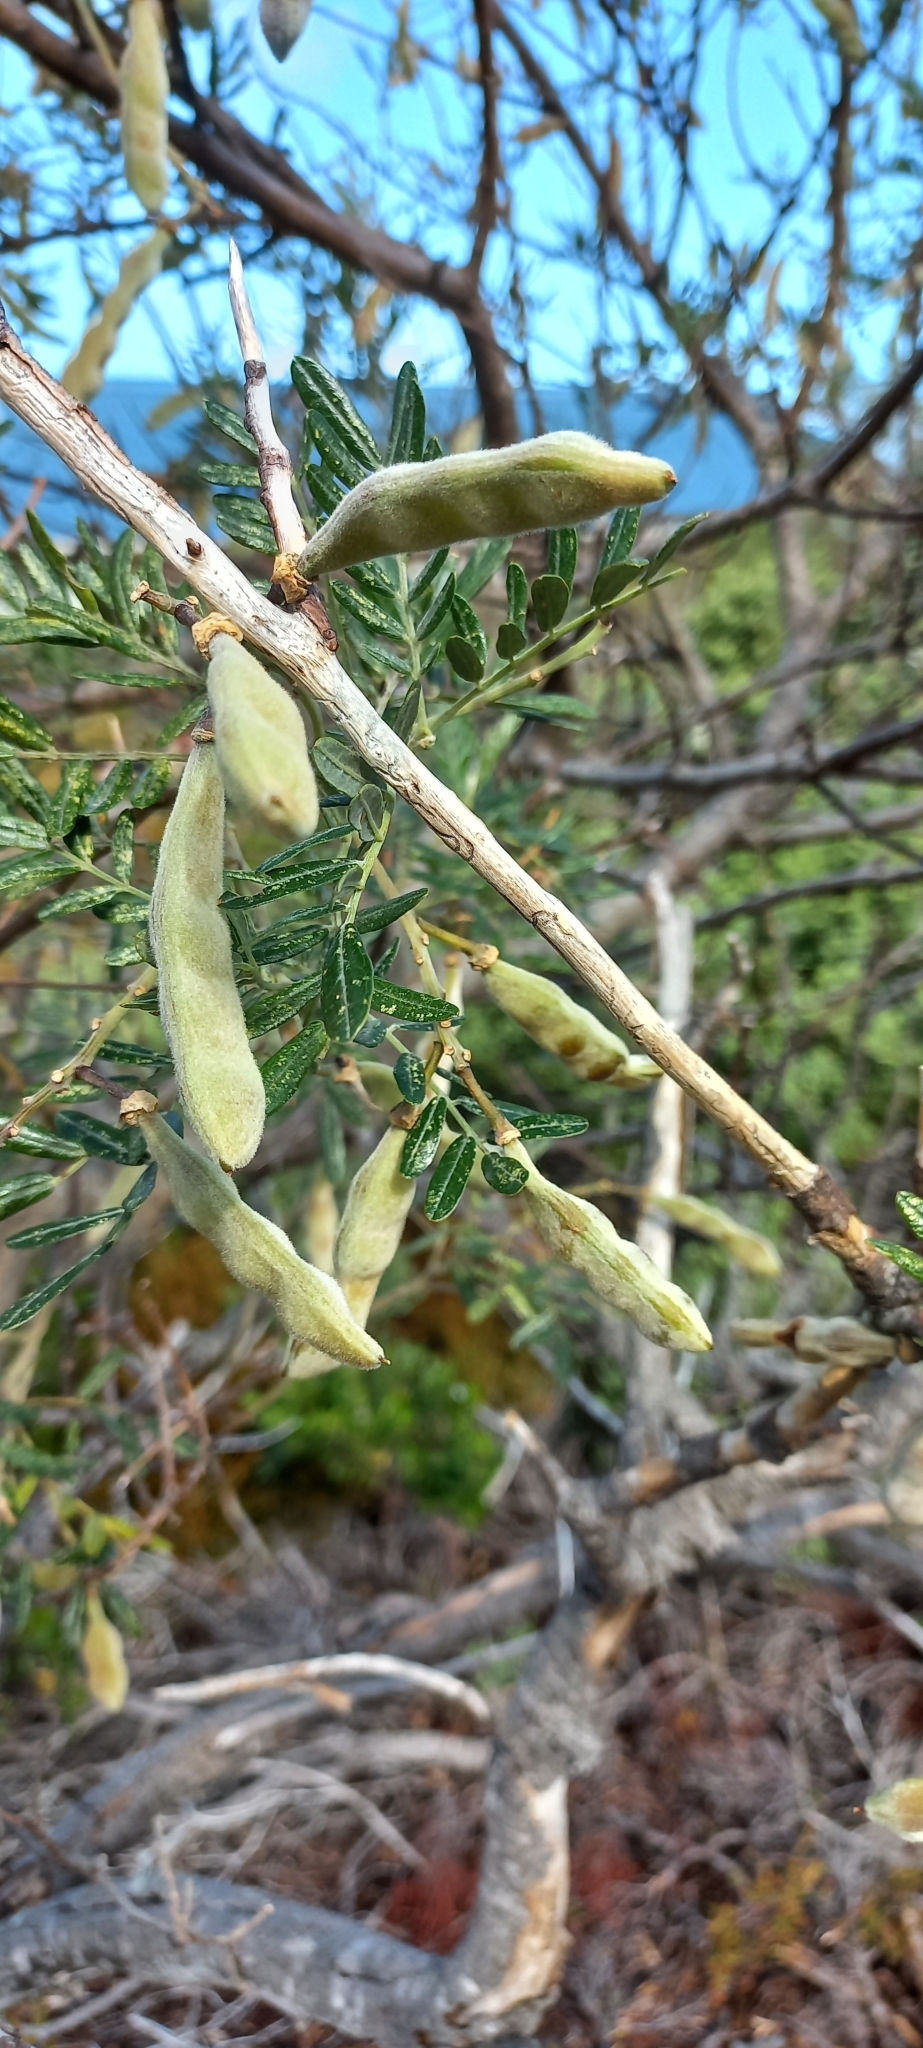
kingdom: Plantae
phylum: Tracheophyta
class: Magnoliopsida
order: Fabales
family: Fabaceae
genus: Virgilia
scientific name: Virgilia oroboides
